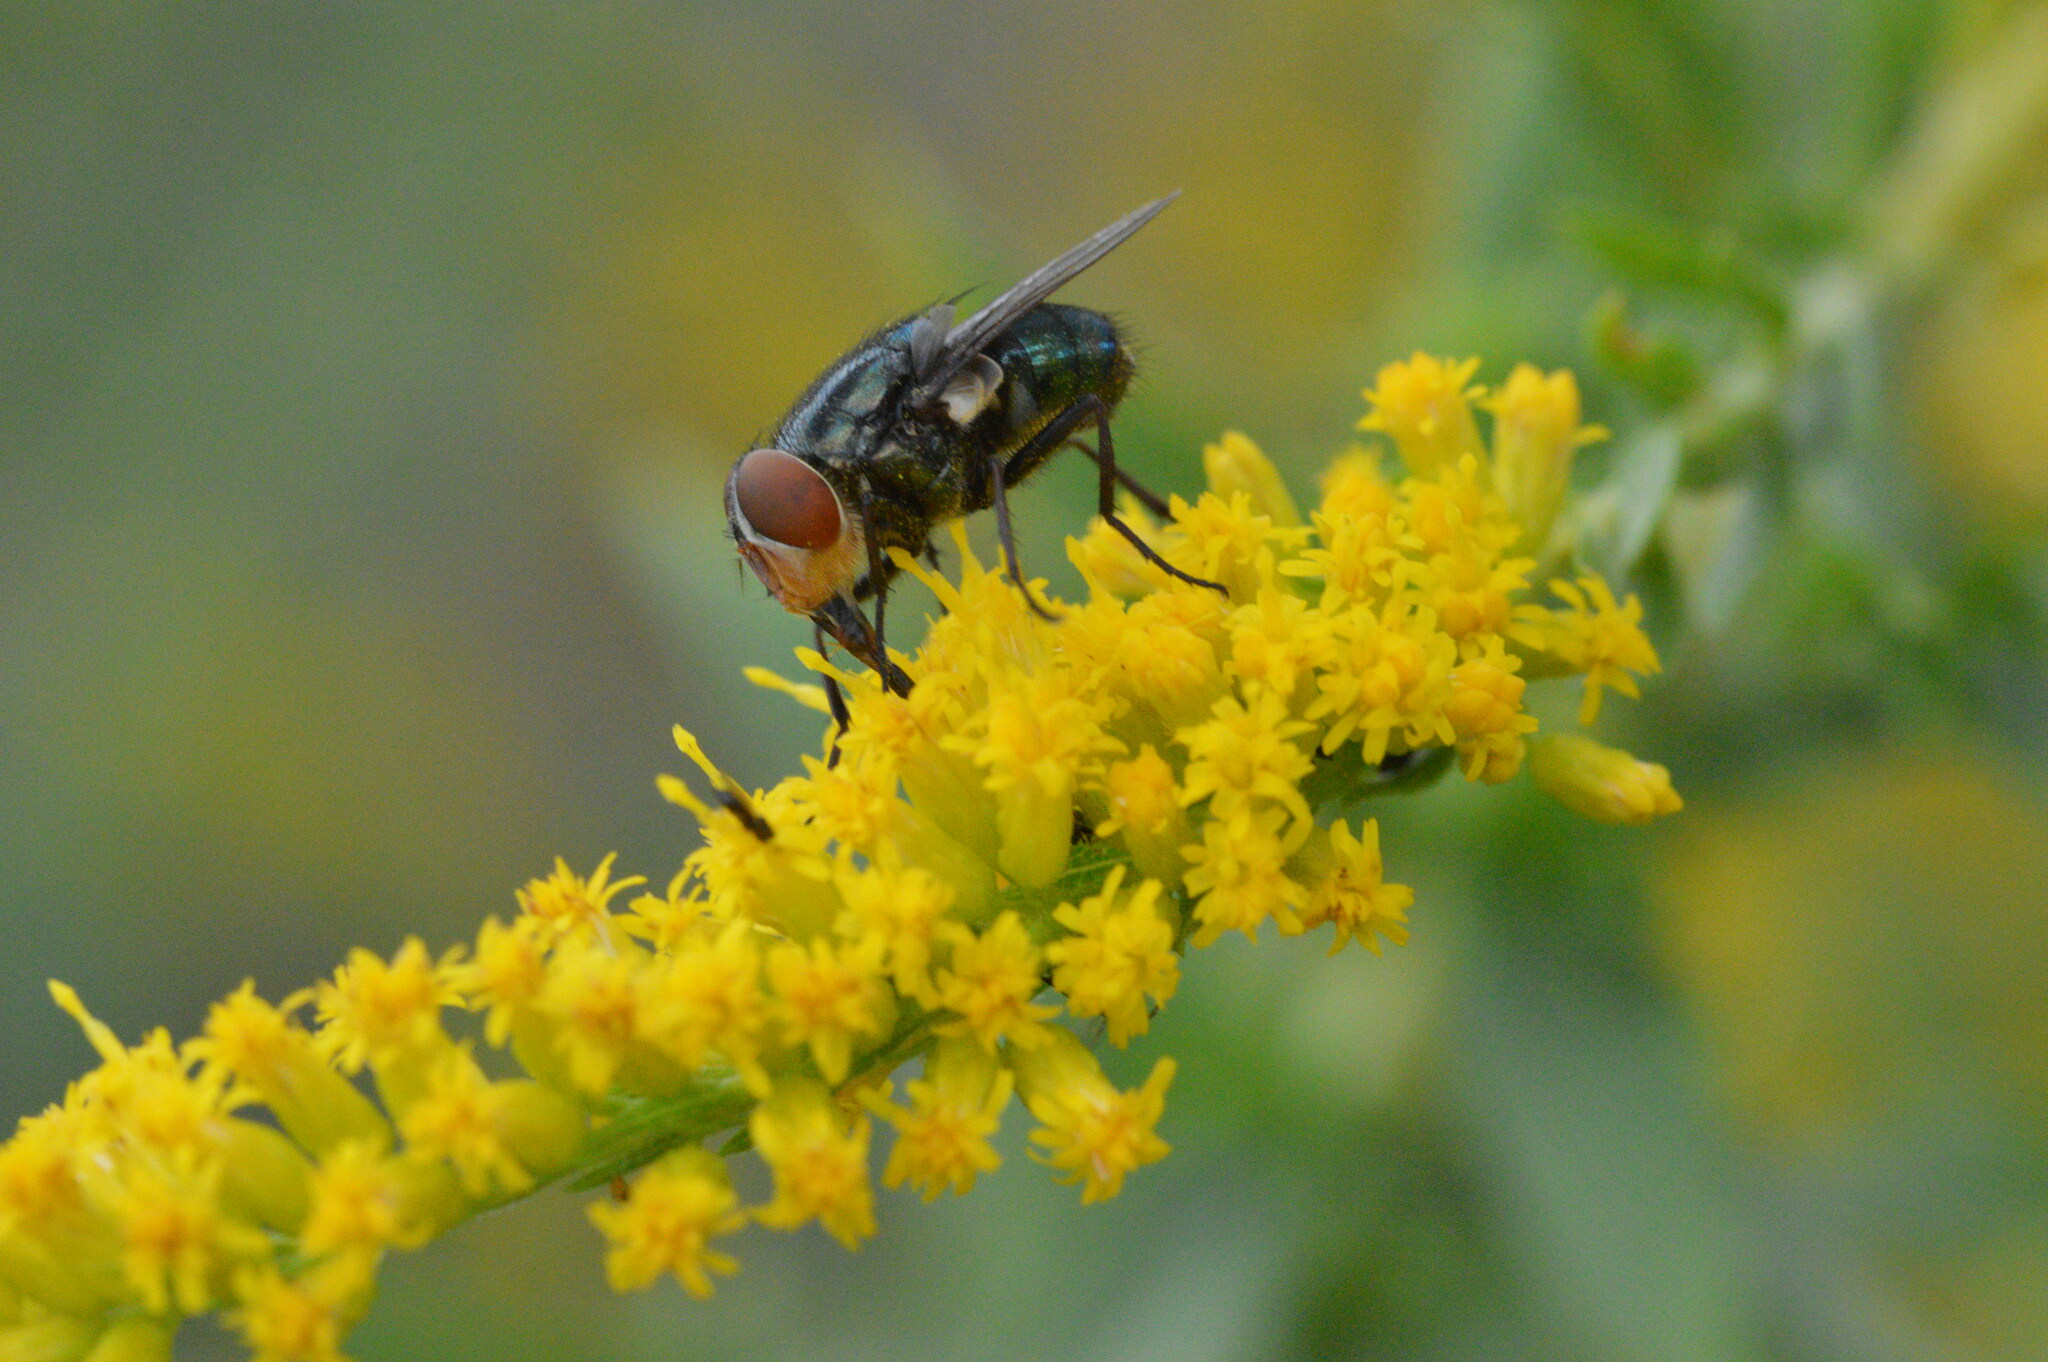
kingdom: Animalia
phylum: Arthropoda
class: Insecta
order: Diptera
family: Calliphoridae
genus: Cochliomyia
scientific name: Cochliomyia macellaria
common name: Secondary screwworm
